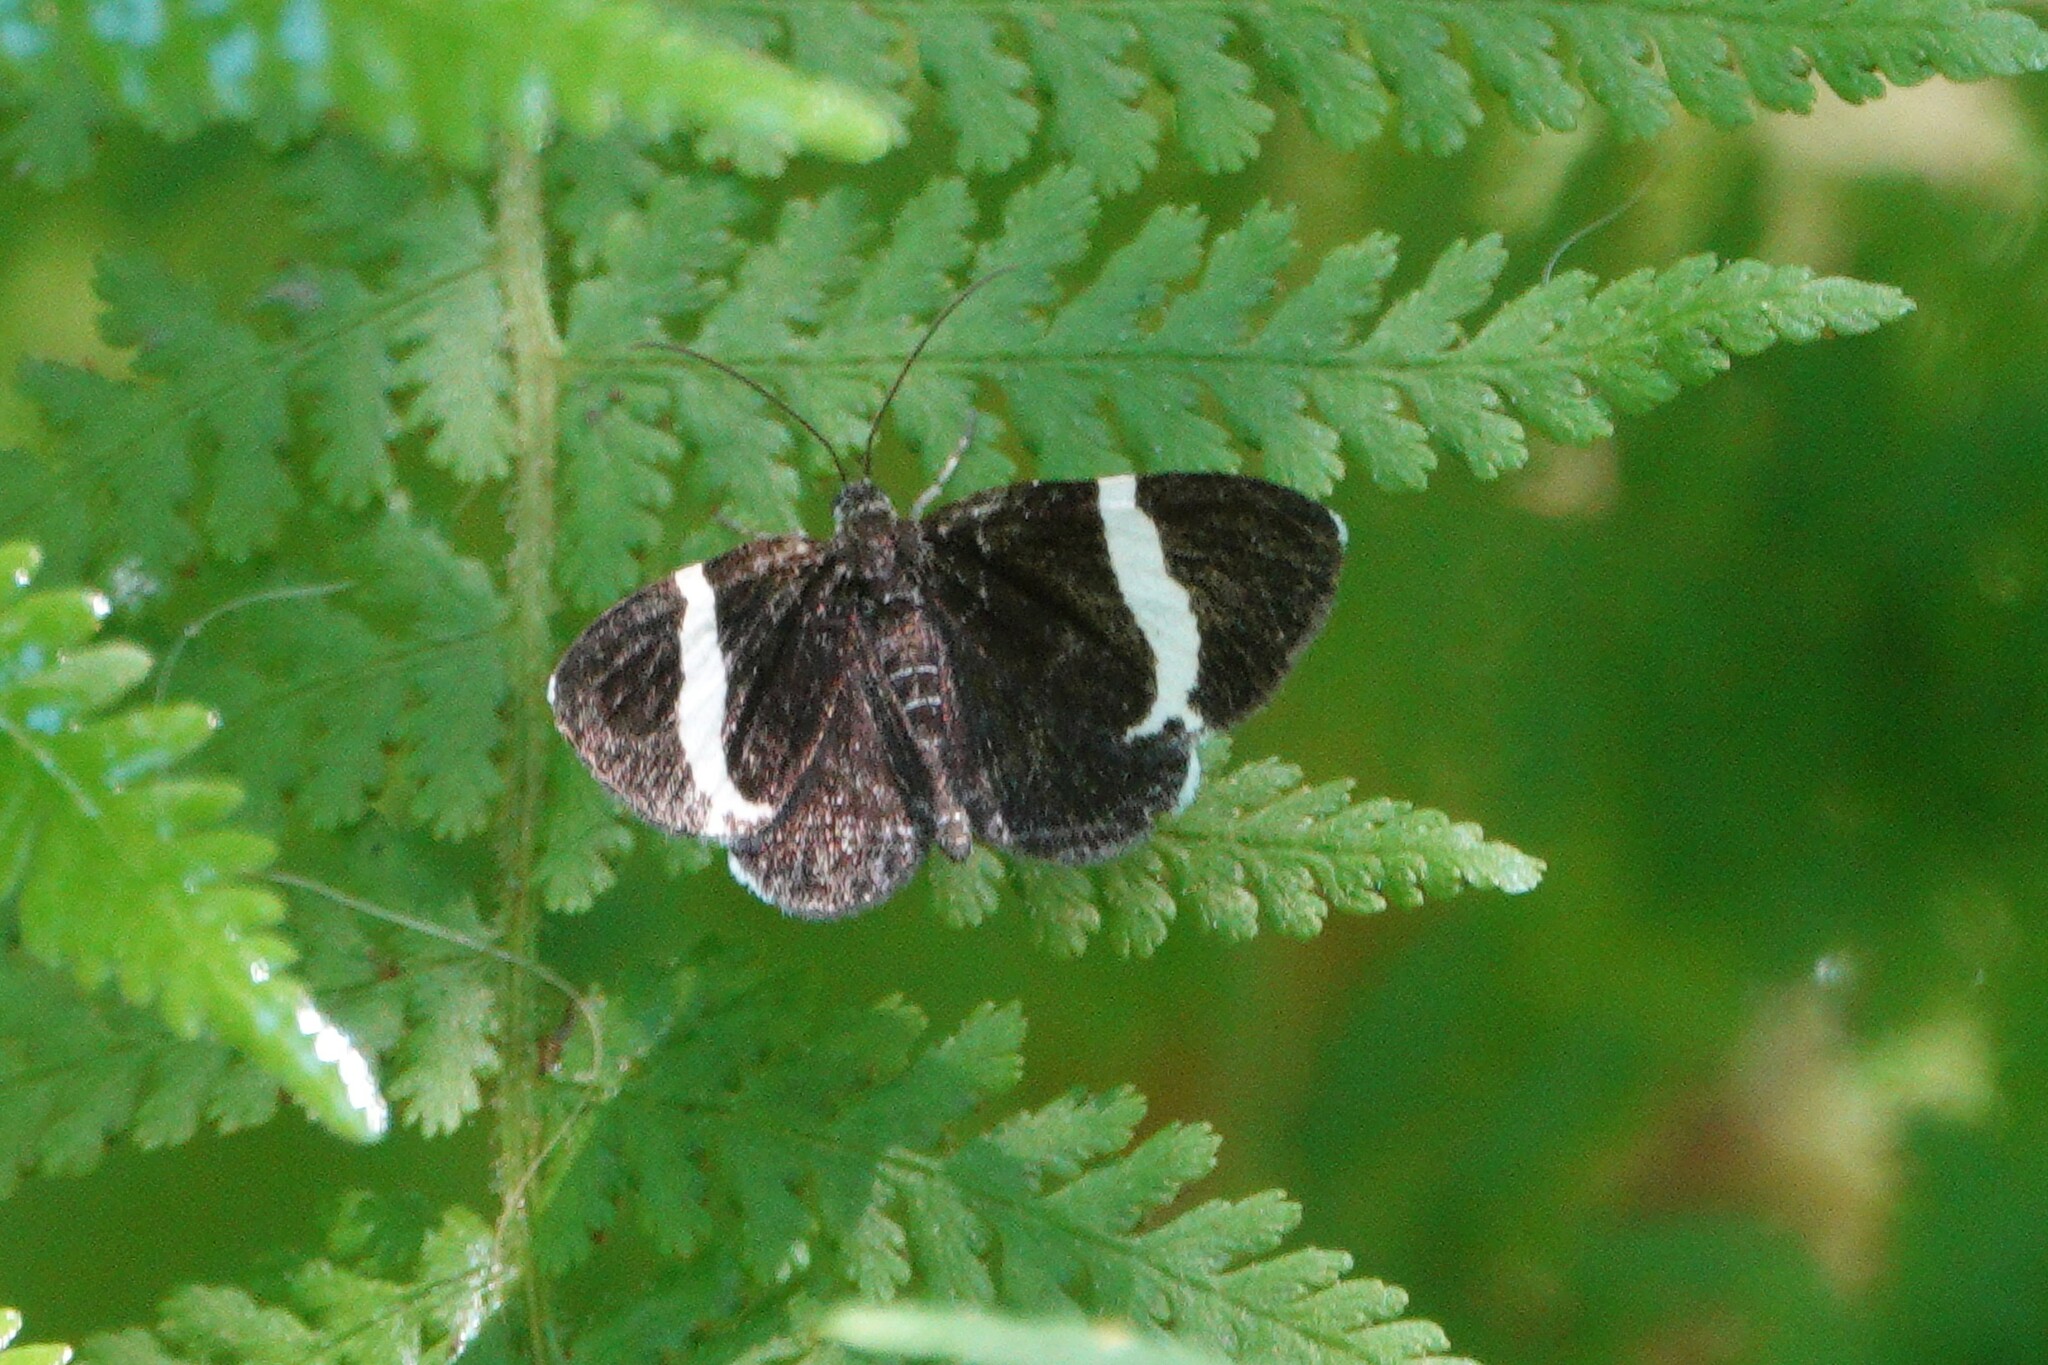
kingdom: Animalia
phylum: Arthropoda
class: Insecta
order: Lepidoptera
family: Geometridae
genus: Trichodezia
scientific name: Trichodezia albovittata
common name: White striped black
